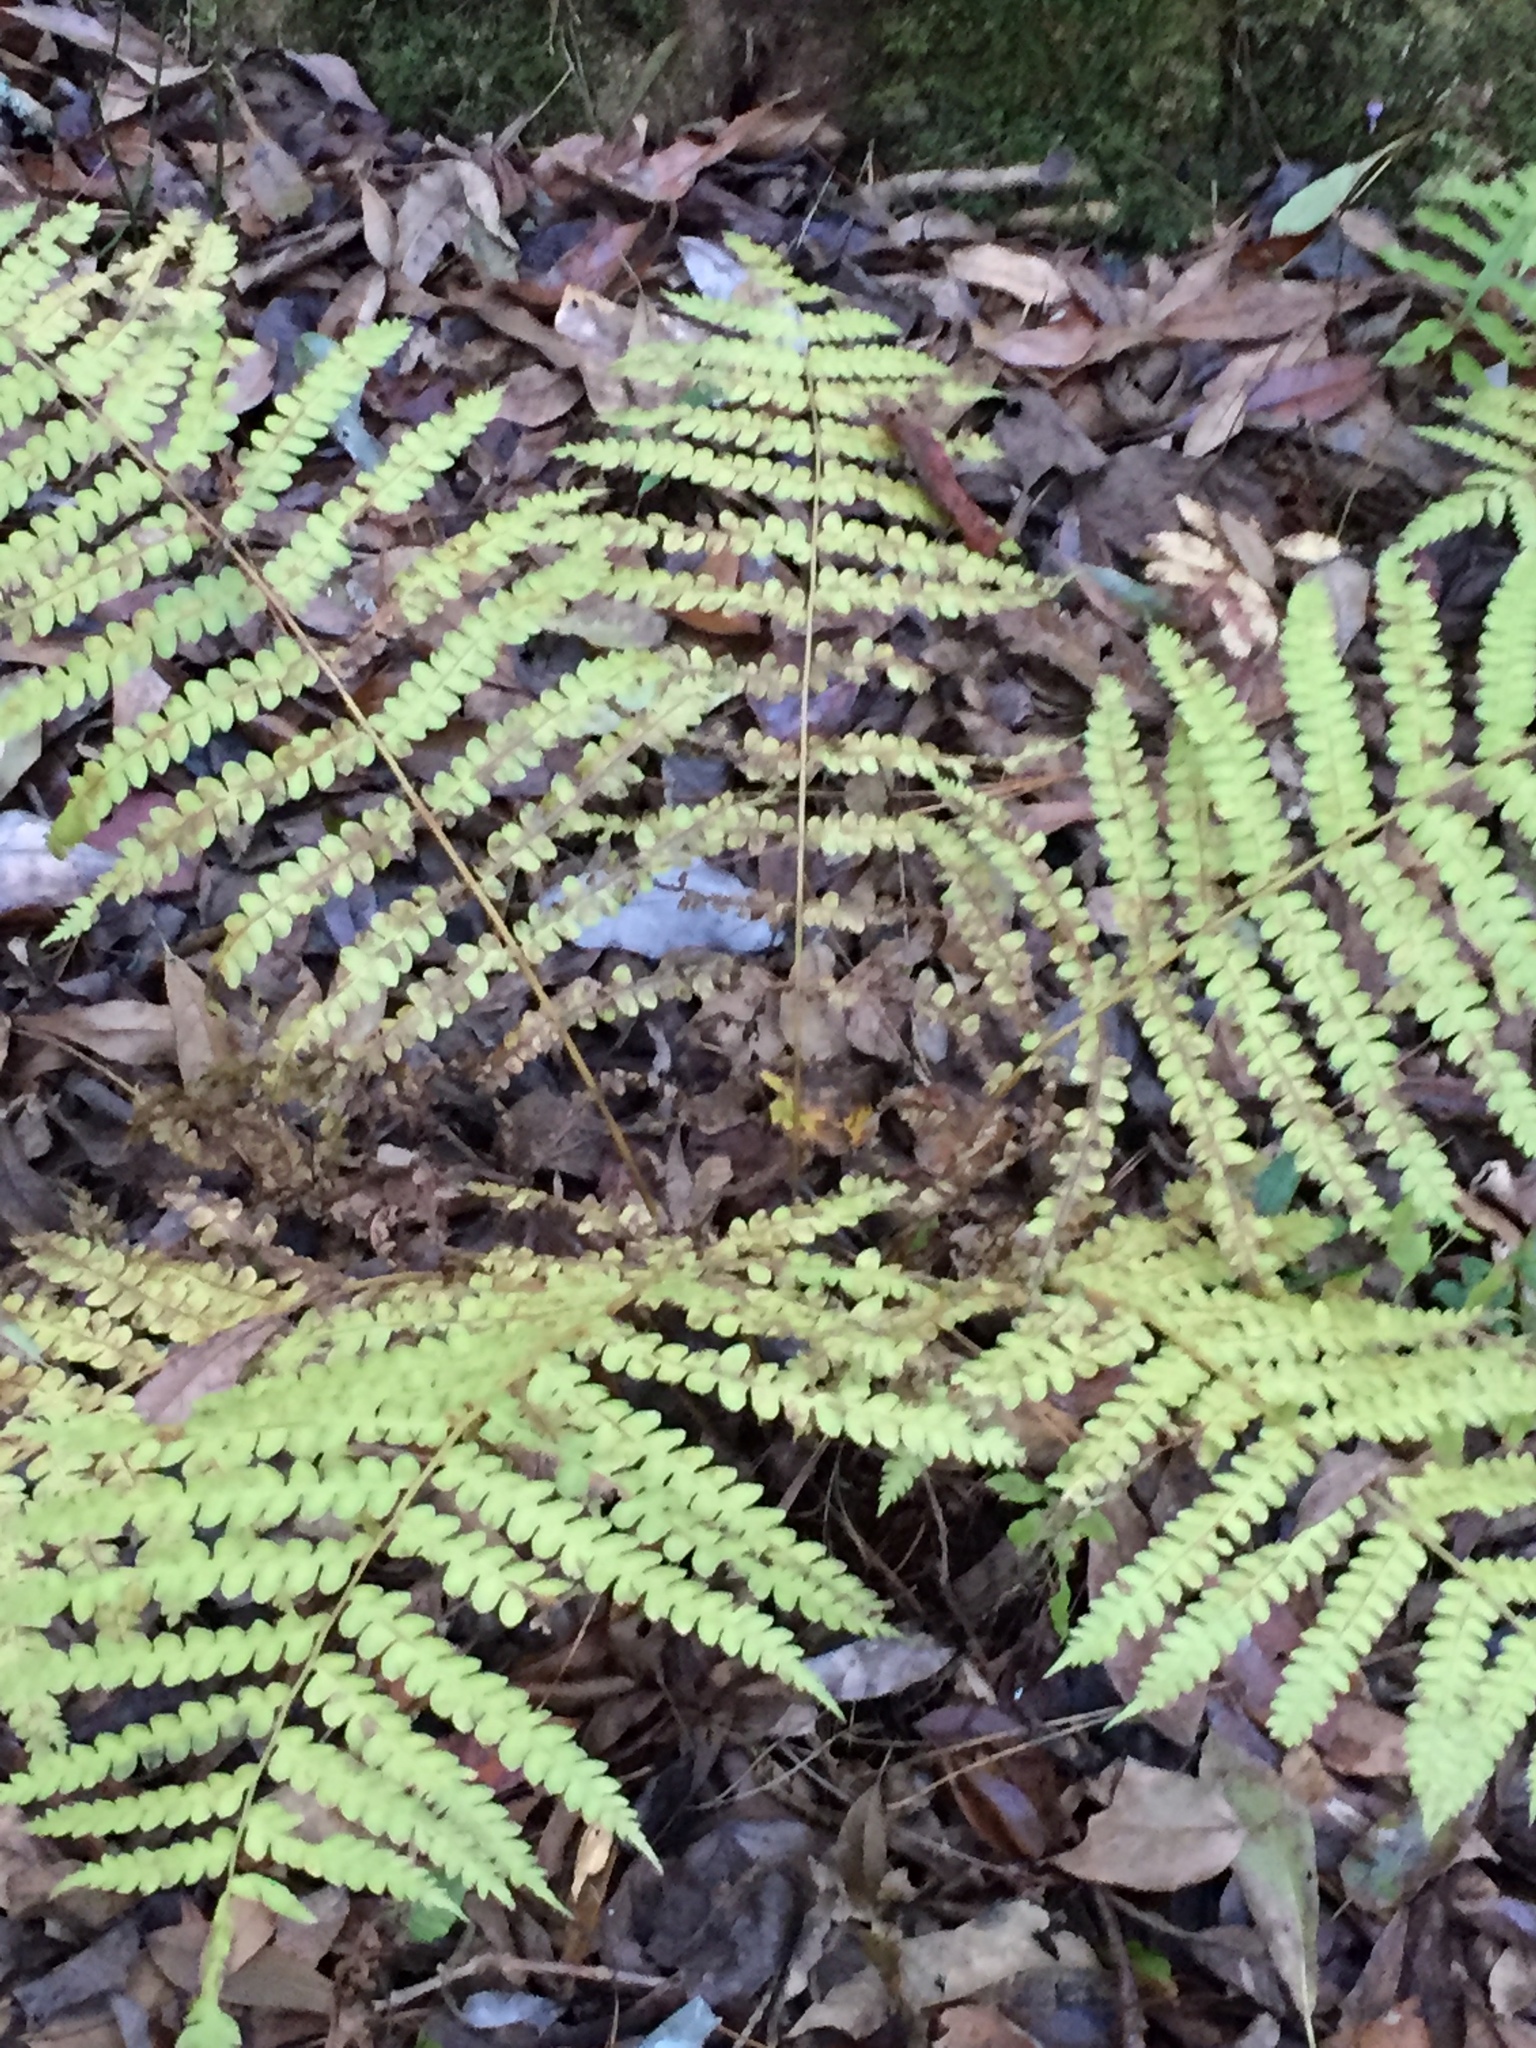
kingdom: Plantae
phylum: Tracheophyta
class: Polypodiopsida
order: Osmundales
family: Osmundaceae
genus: Osmundastrum
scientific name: Osmundastrum cinnamomeum
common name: Cinnamon fern
